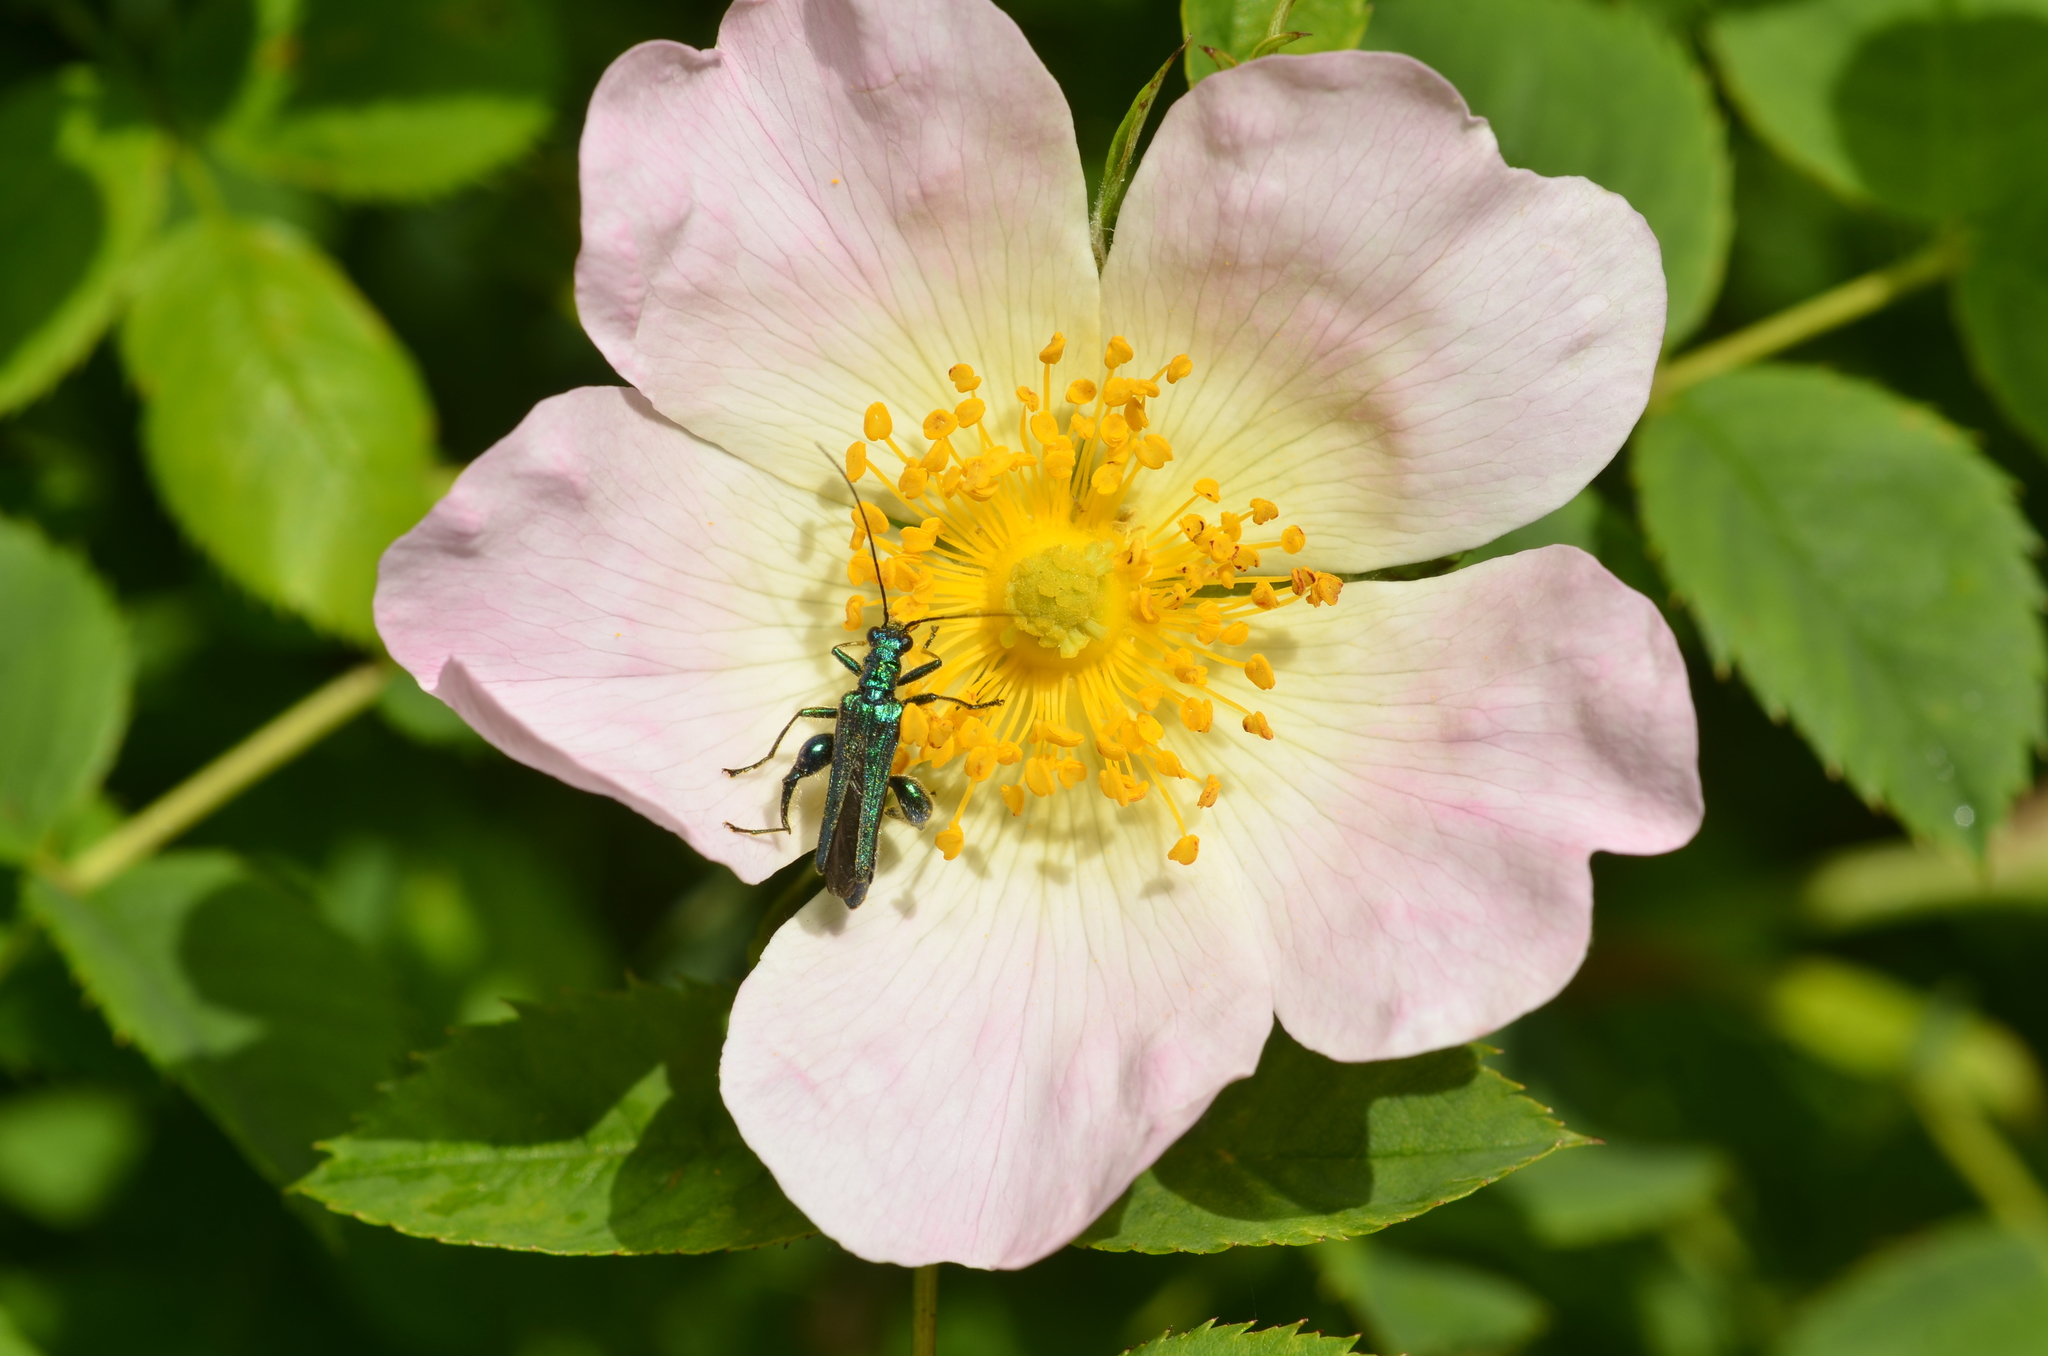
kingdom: Animalia
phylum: Arthropoda
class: Insecta
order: Coleoptera
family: Oedemeridae
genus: Oedemera
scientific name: Oedemera nobilis
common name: Swollen-thighed beetle
